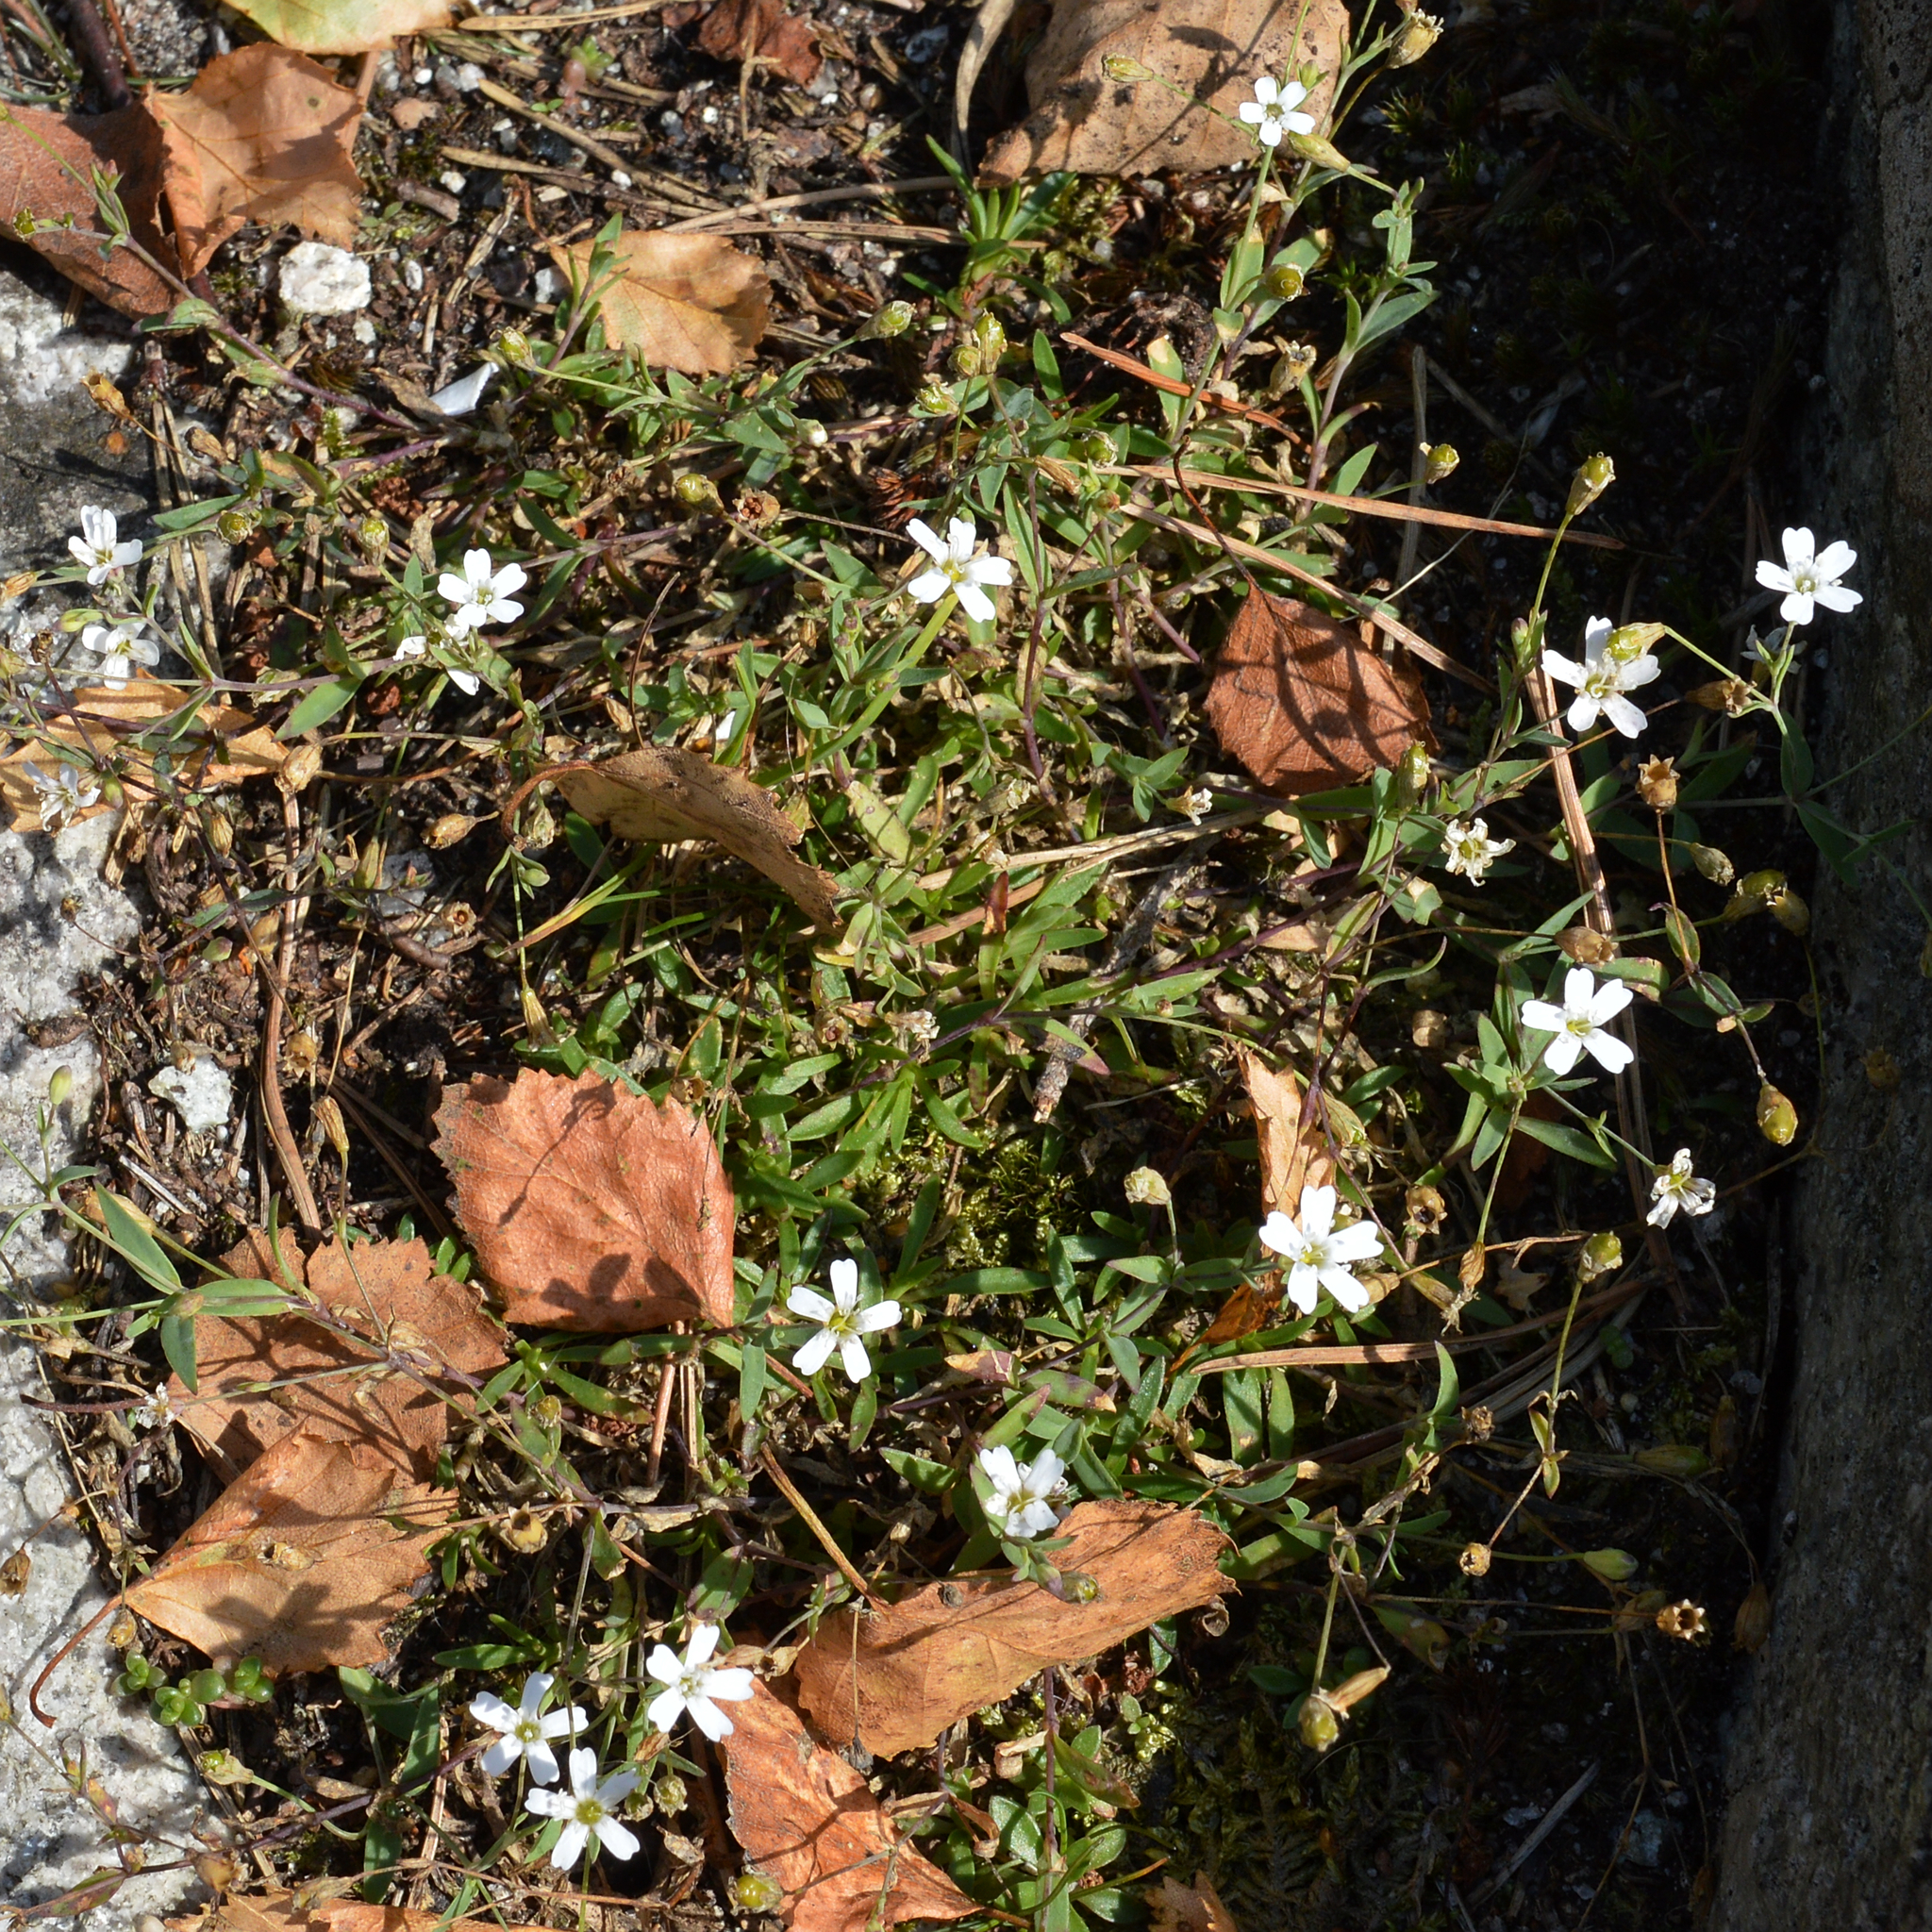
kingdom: Plantae
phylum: Tracheophyta
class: Magnoliopsida
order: Caryophyllales
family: Caryophyllaceae
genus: Atocion
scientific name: Atocion rupestre
